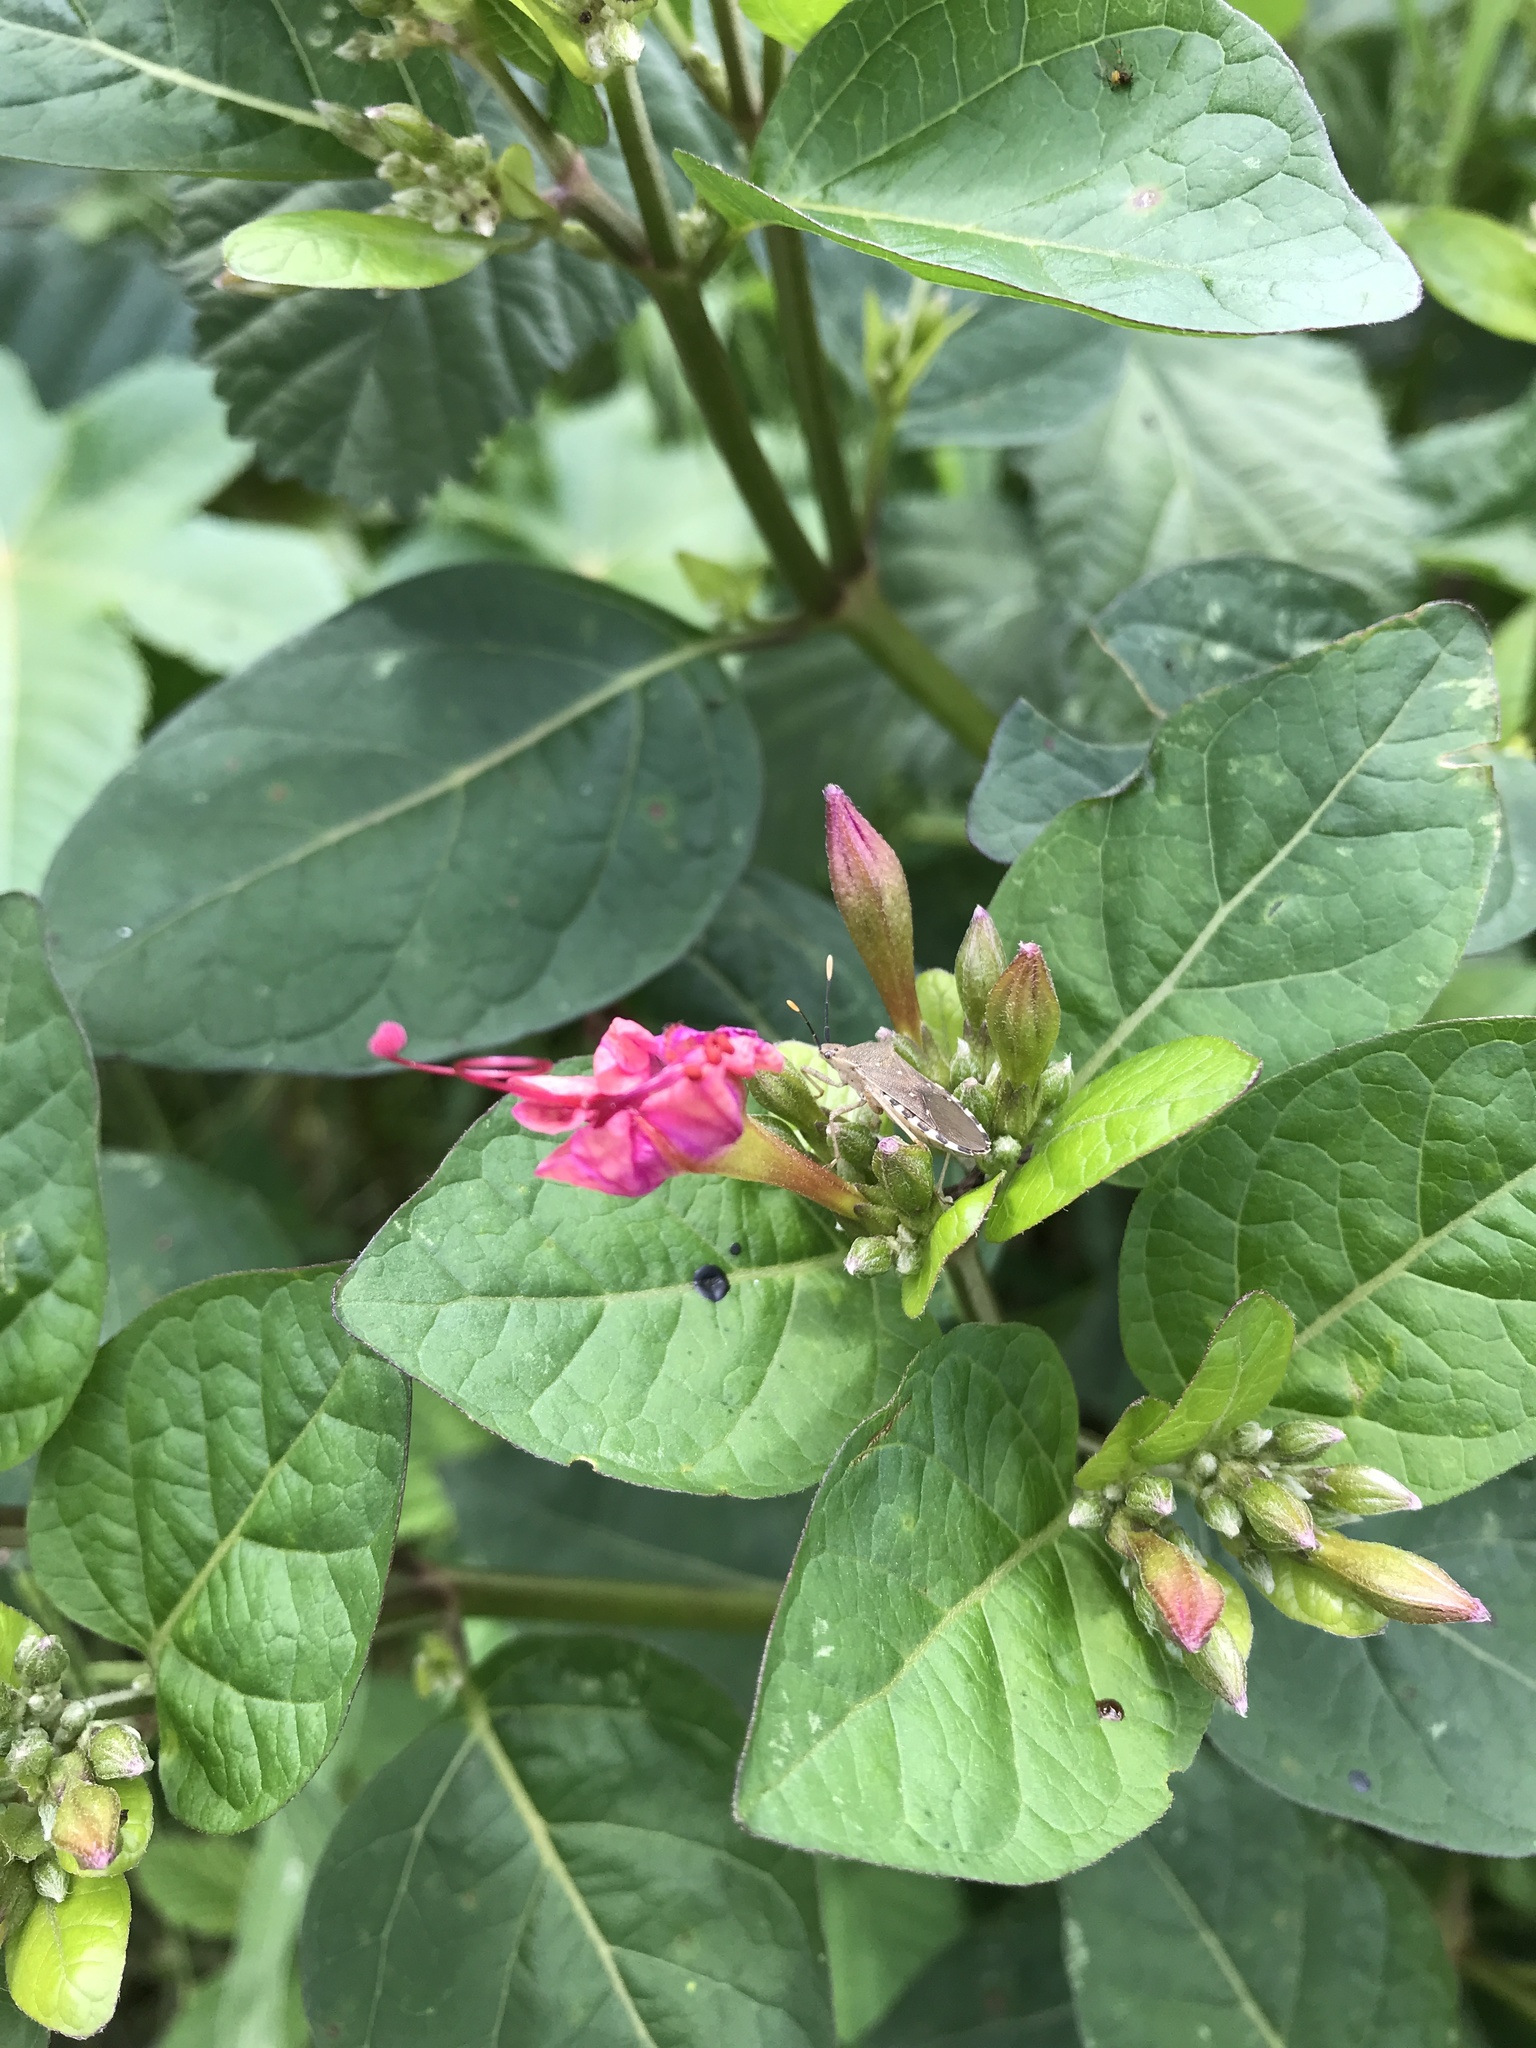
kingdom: Plantae
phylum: Tracheophyta
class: Magnoliopsida
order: Caryophyllales
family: Nyctaginaceae
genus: Mirabilis
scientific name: Mirabilis jalapa
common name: Marvel-of-peru
